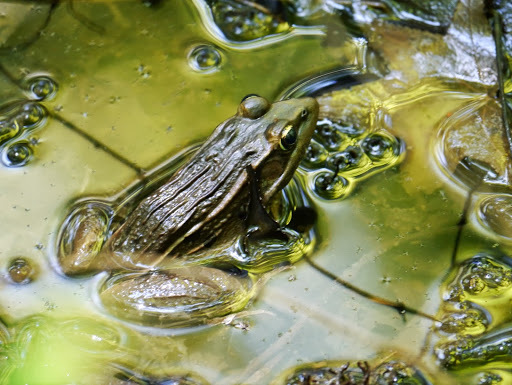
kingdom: Animalia
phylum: Chordata
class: Amphibia
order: Anura
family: Ranidae
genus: Lithobates
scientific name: Lithobates kauffeldi
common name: Mid-atlantic coast leopard frog
